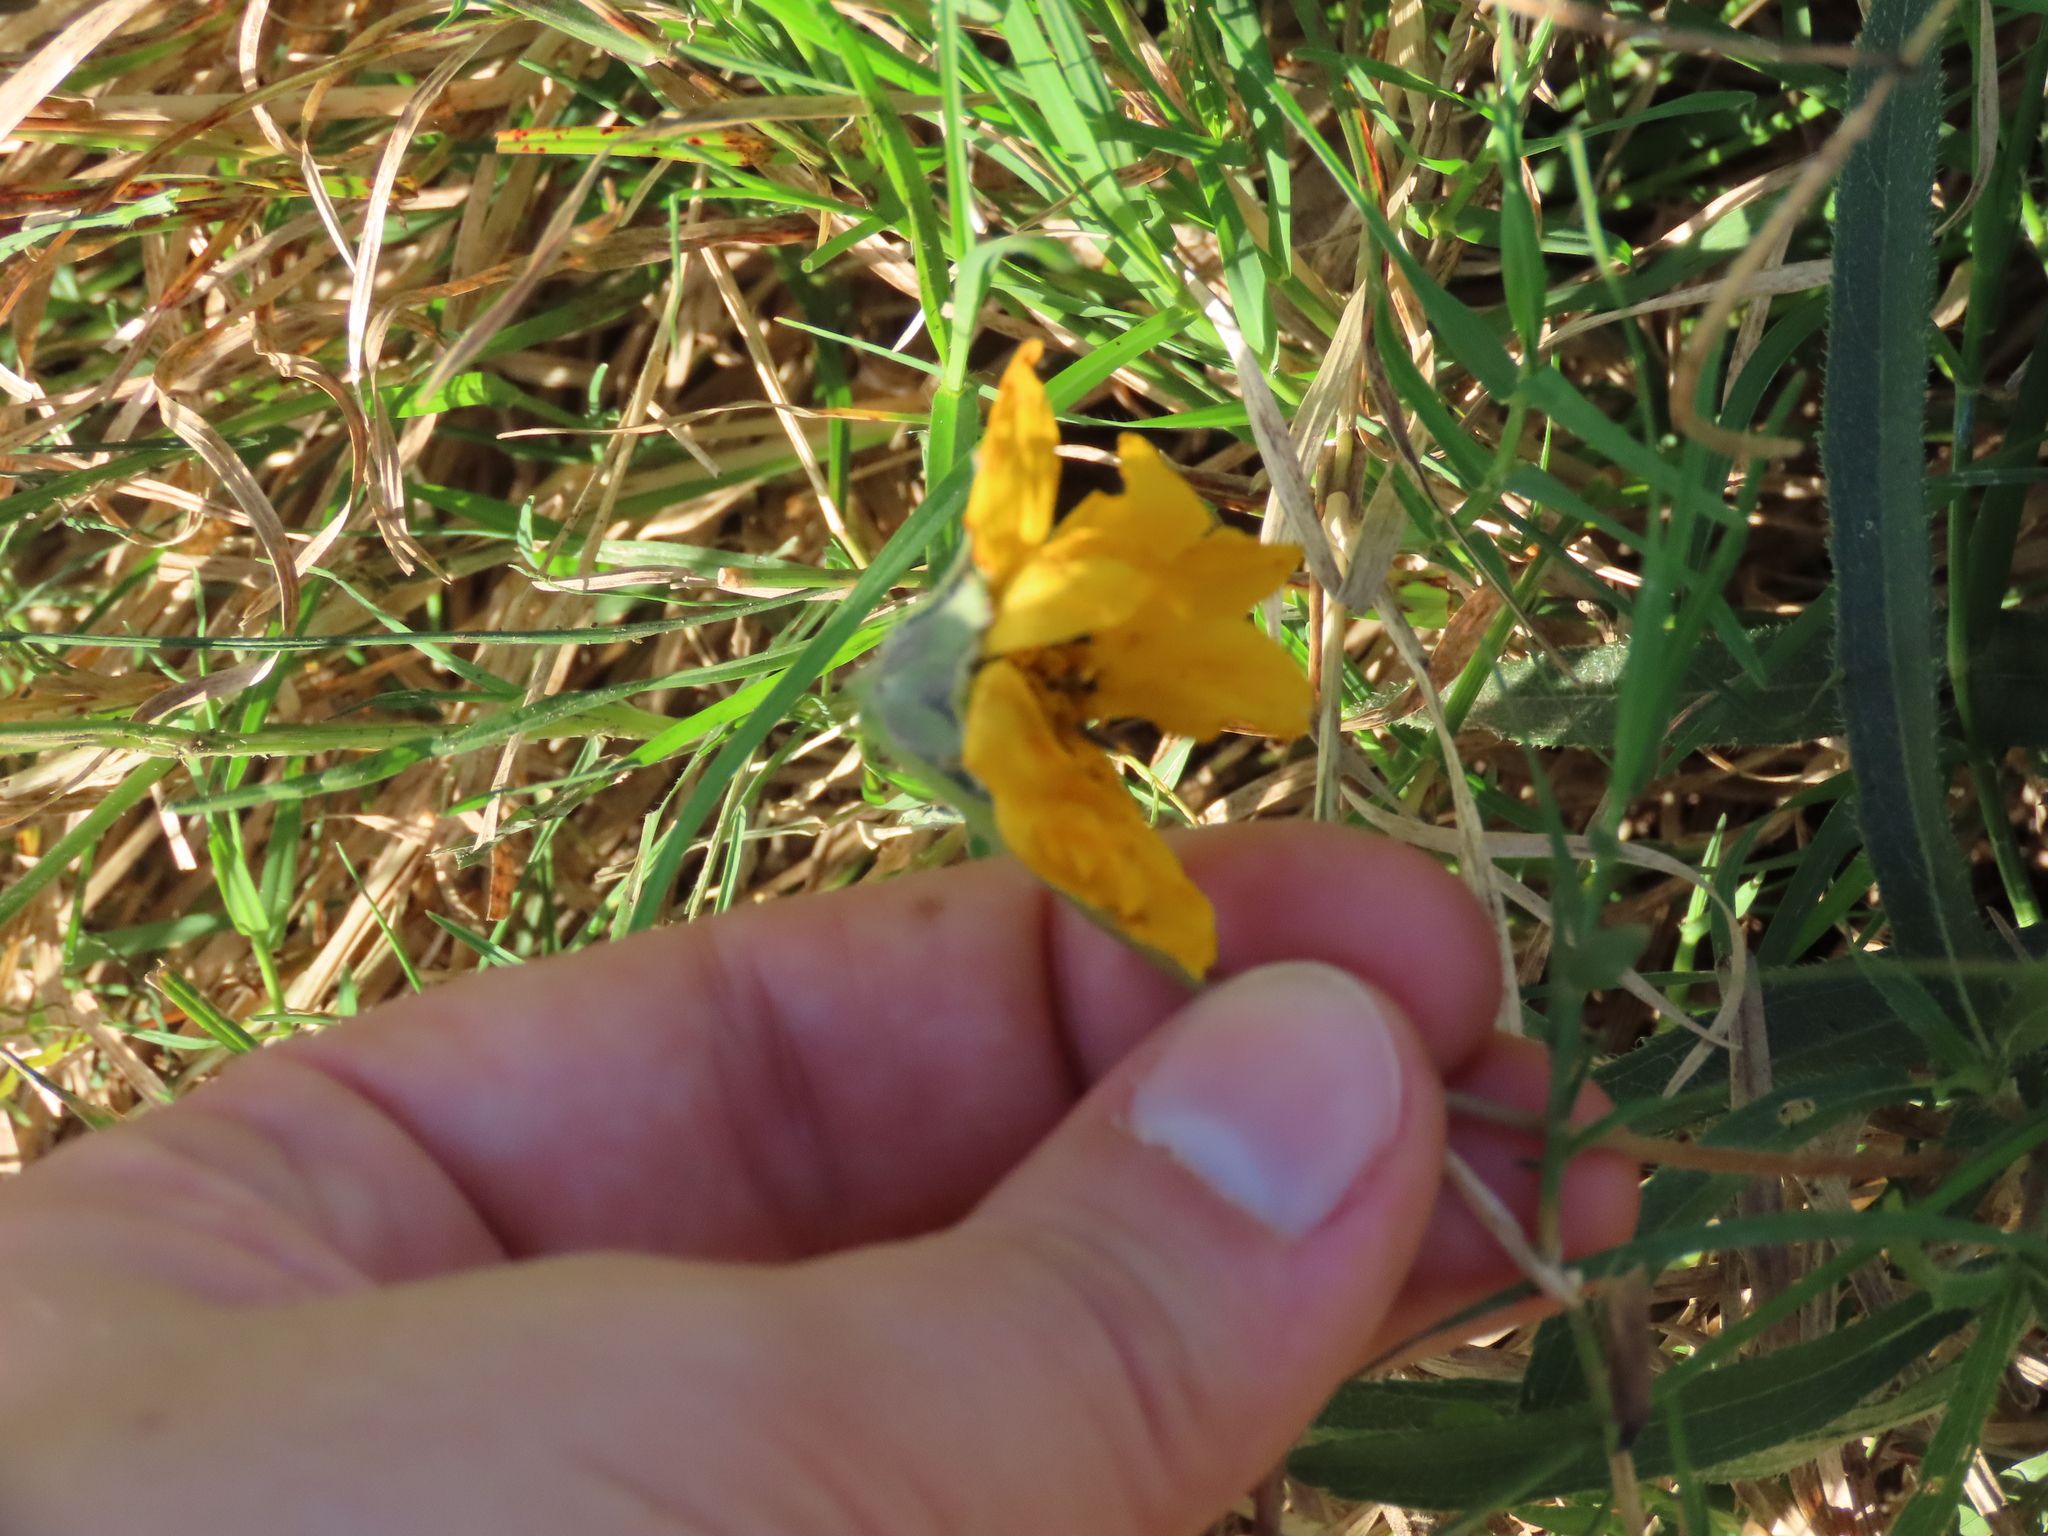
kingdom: Plantae
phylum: Tracheophyta
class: Magnoliopsida
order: Asterales
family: Asteraceae
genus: Wedelia
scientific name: Wedelia montevidensis
